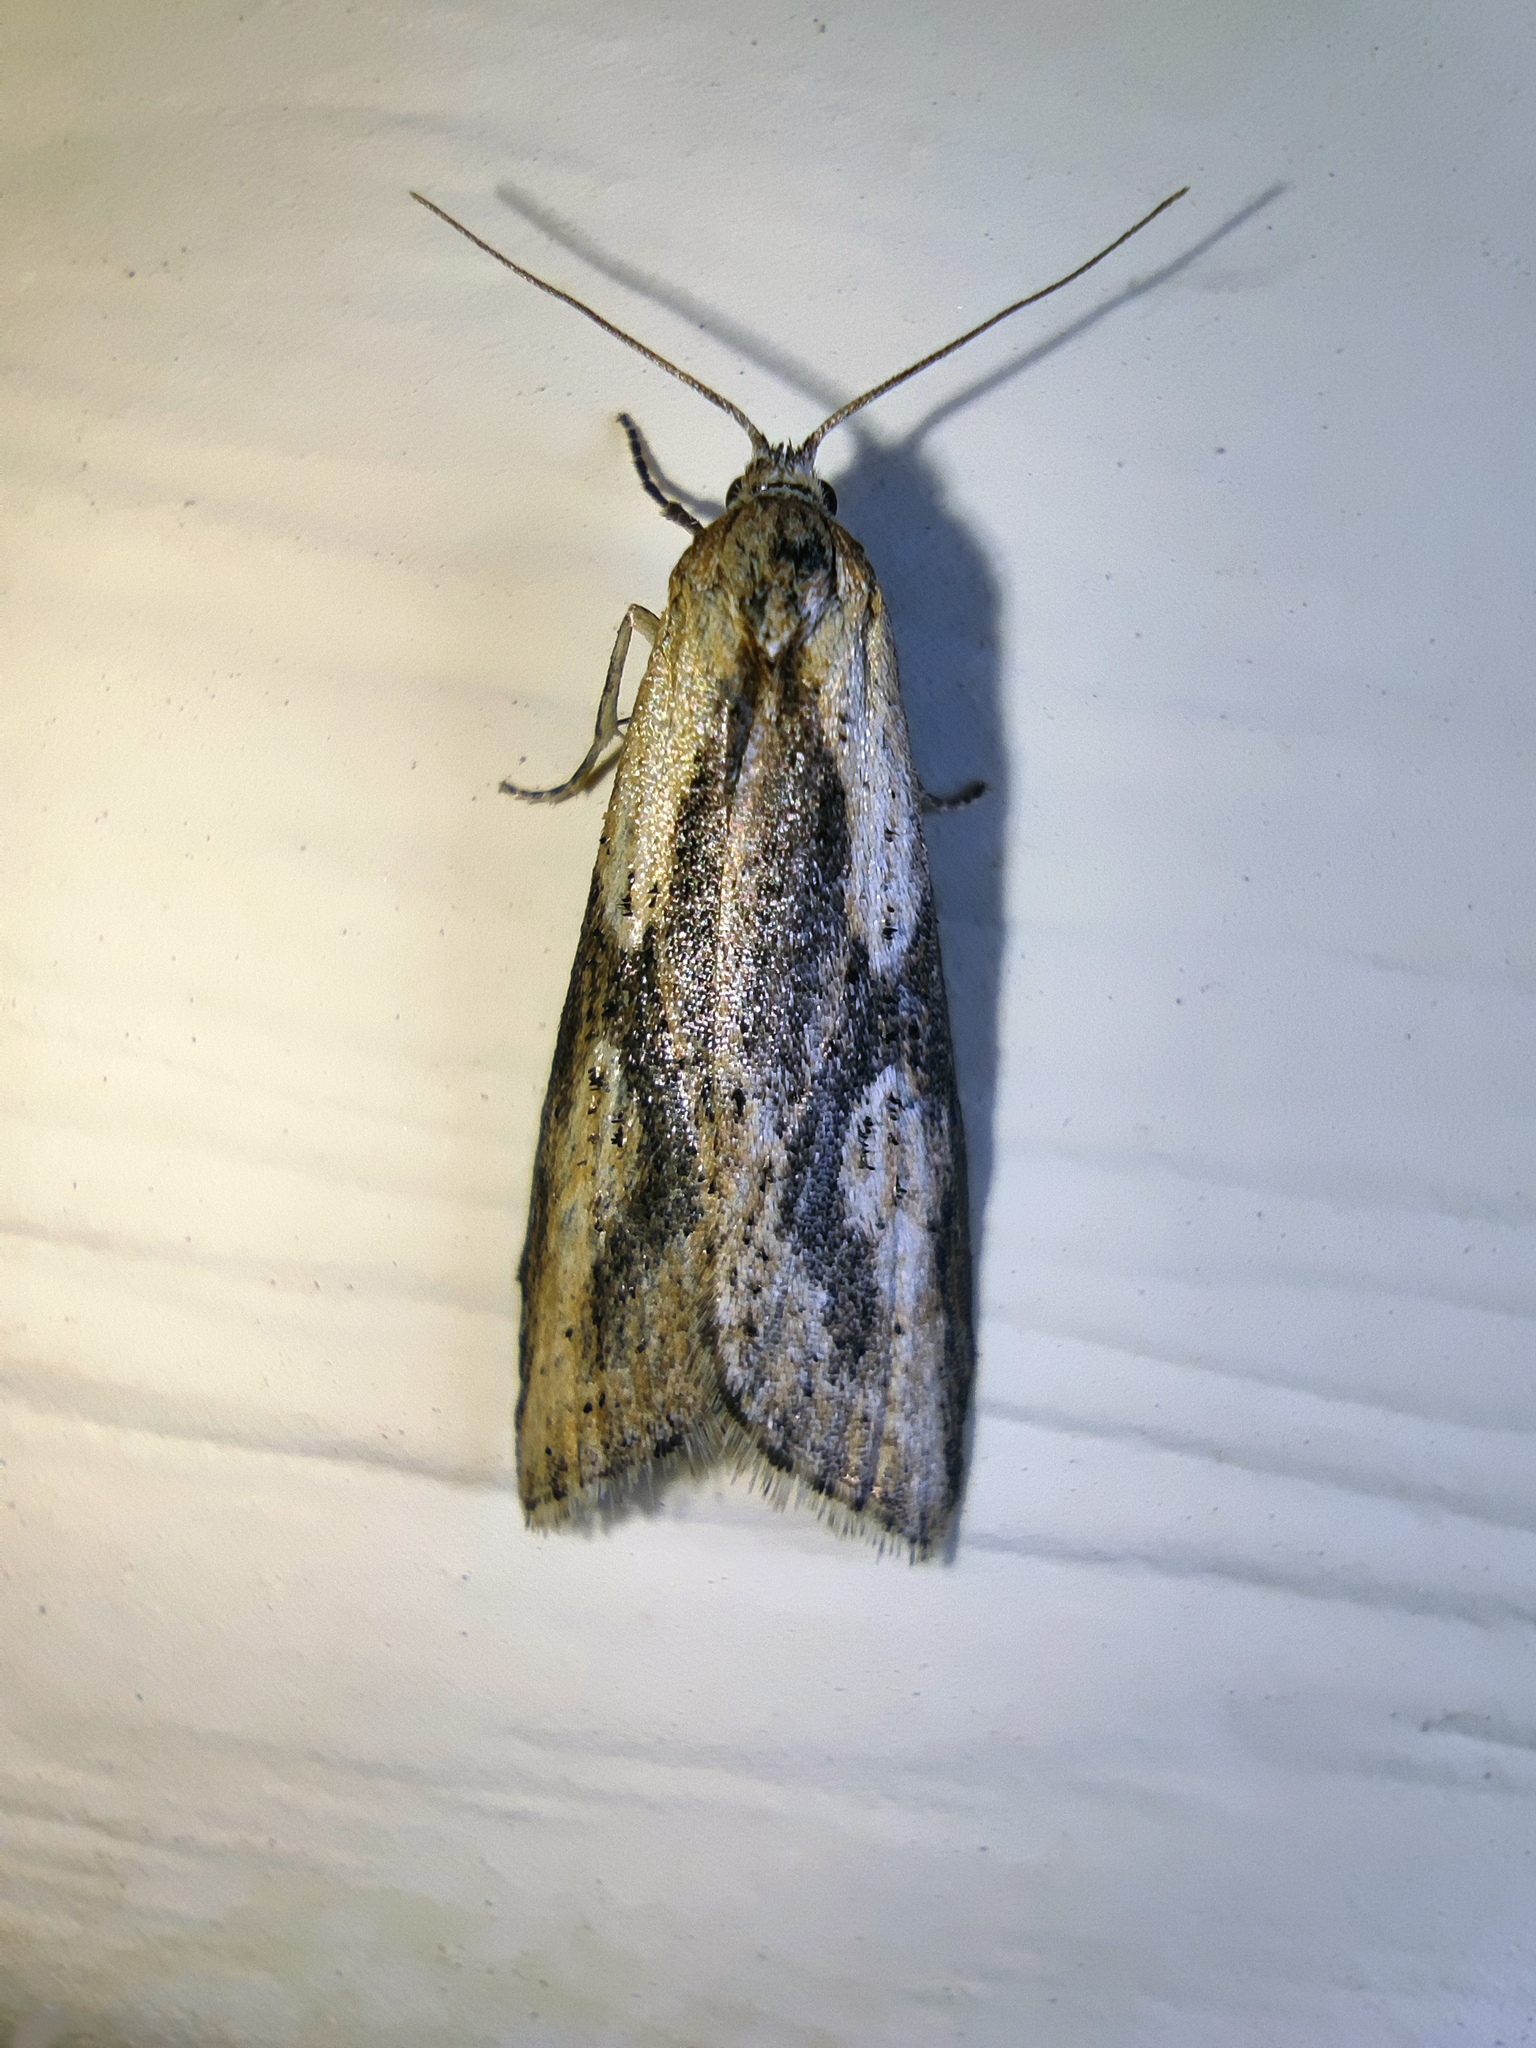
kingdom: Animalia
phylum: Arthropoda
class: Insecta
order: Lepidoptera
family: Tortricidae
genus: Doloploca
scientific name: Doloploca punctulana
